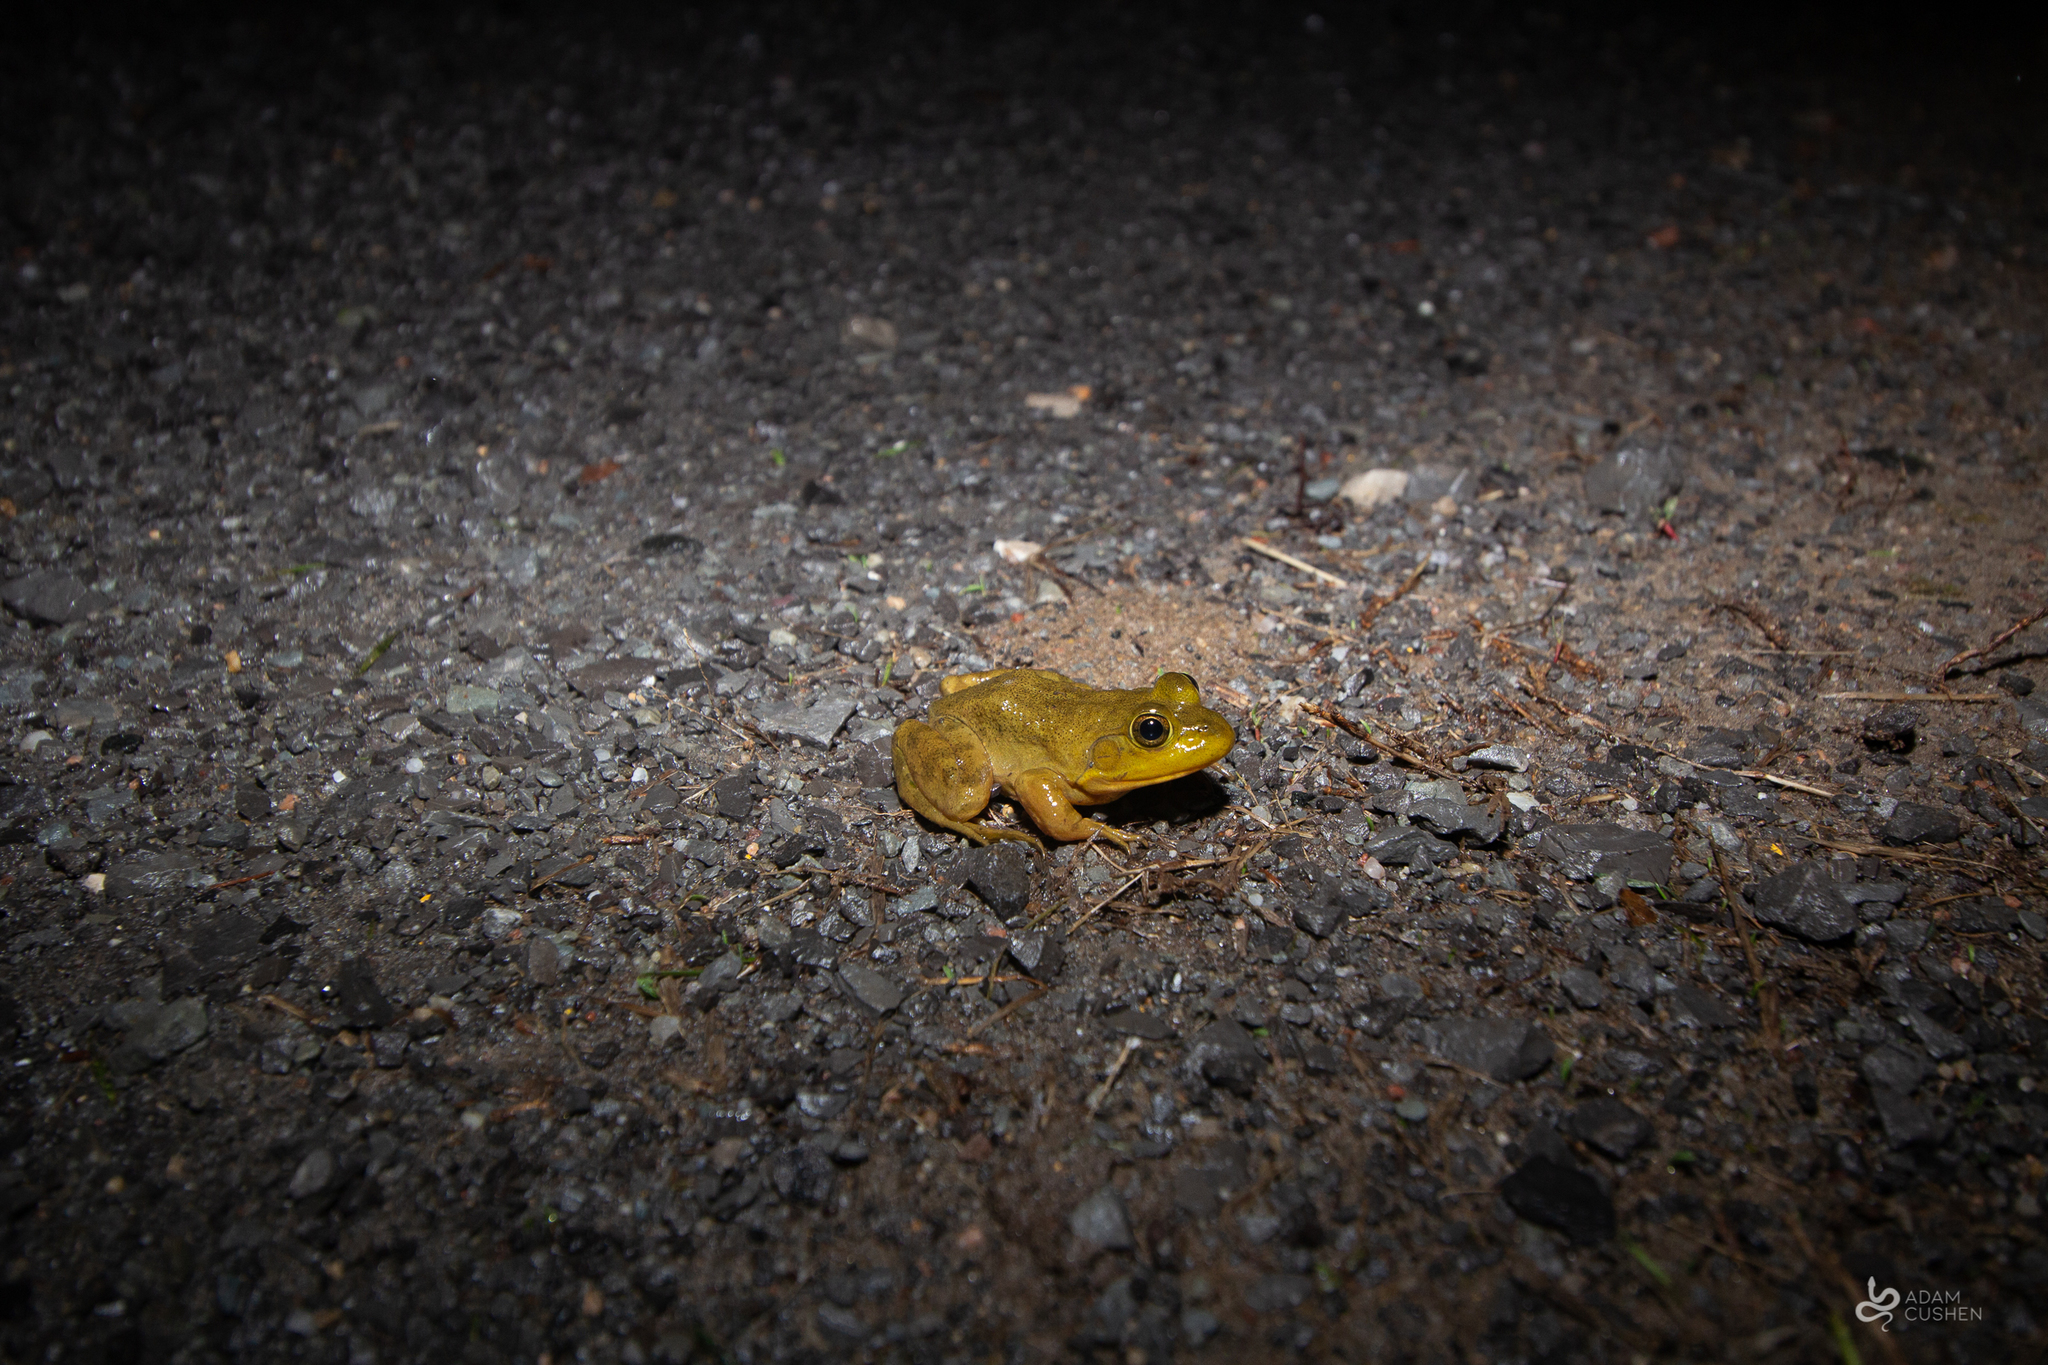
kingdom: Animalia
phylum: Chordata
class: Amphibia
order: Anura
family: Ranidae
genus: Lithobates
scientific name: Lithobates catesbeianus
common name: American bullfrog
